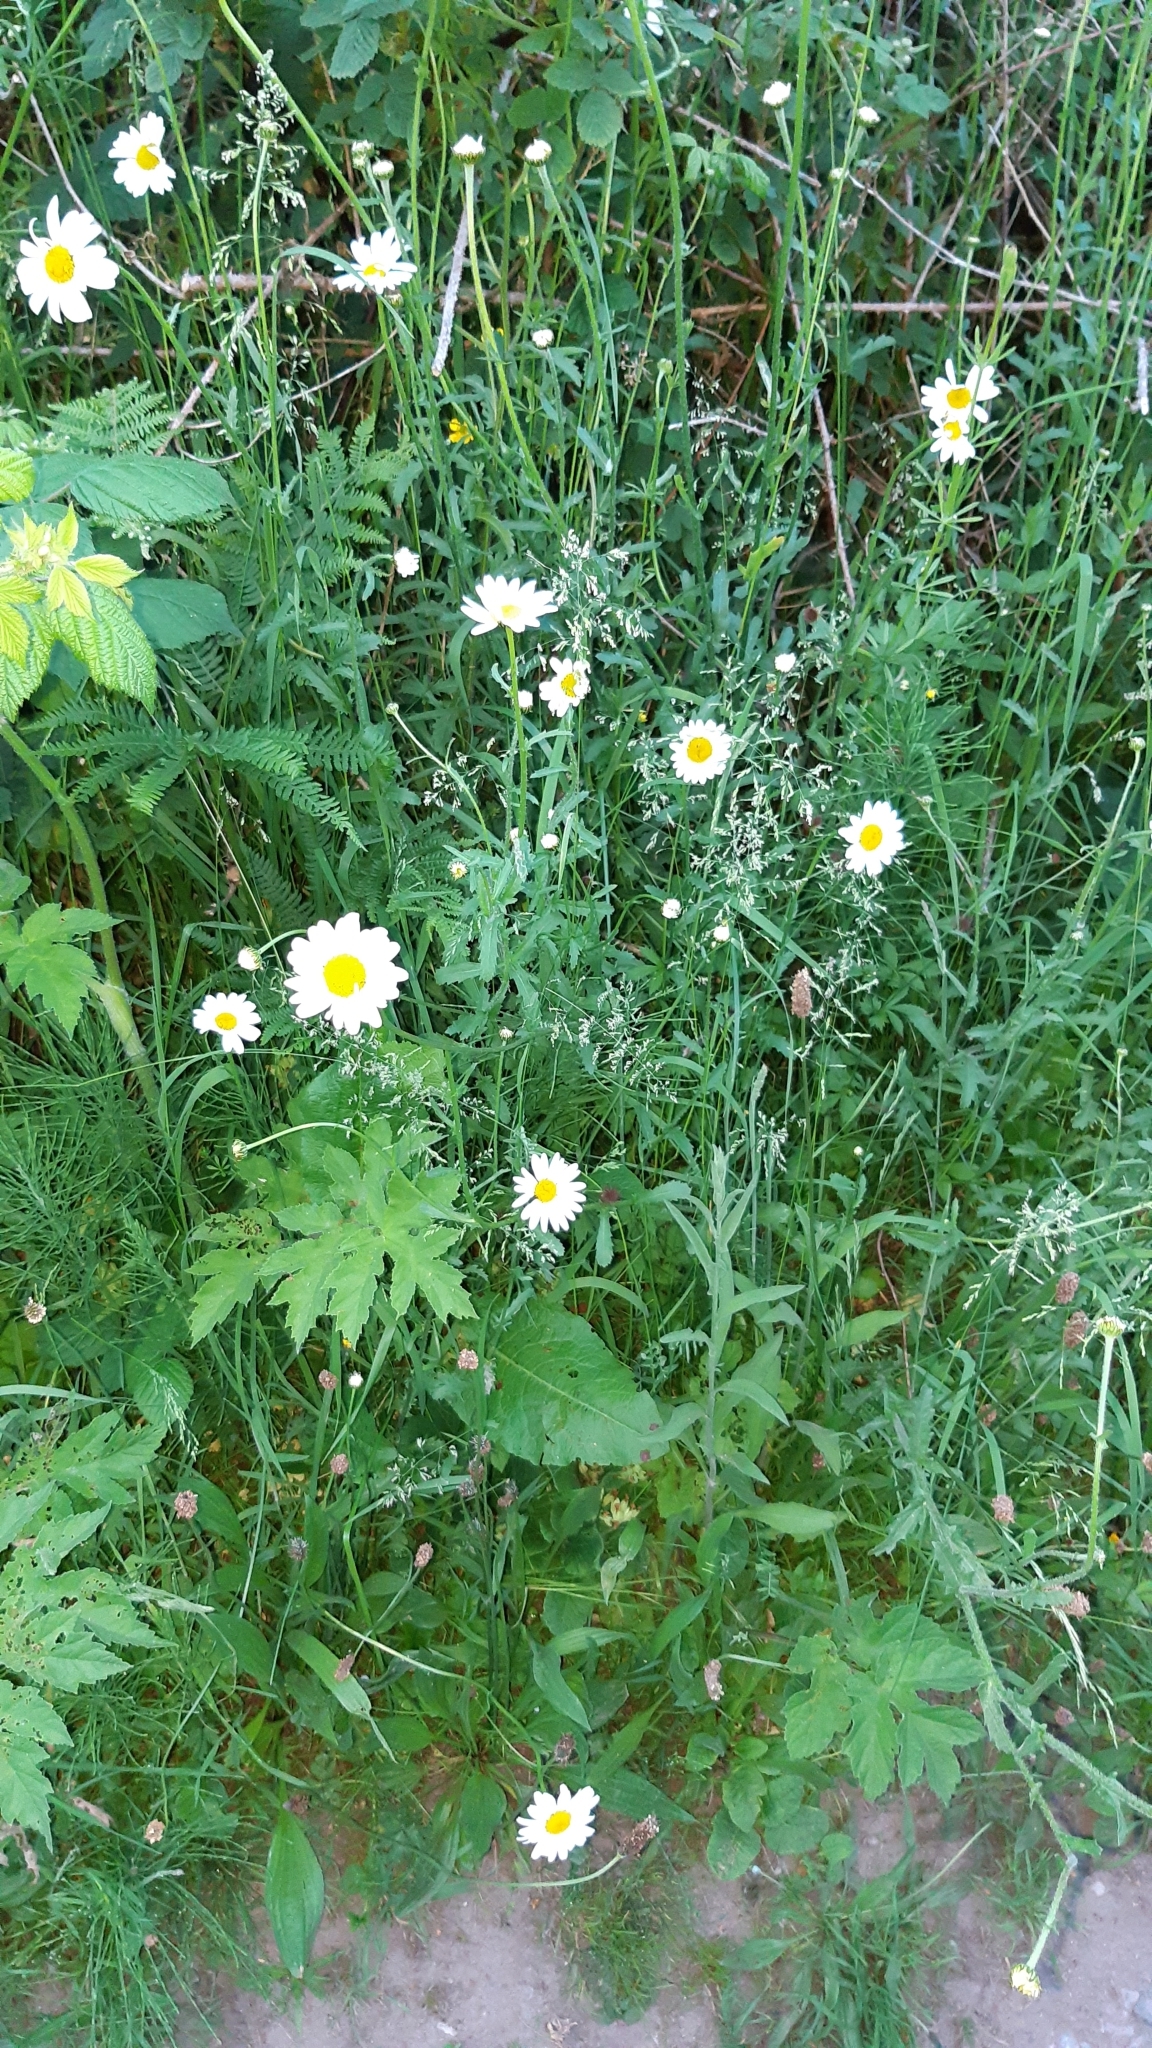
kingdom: Plantae
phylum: Tracheophyta
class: Magnoliopsida
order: Asterales
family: Asteraceae
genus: Leucanthemum
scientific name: Leucanthemum vulgare
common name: Oxeye daisy
